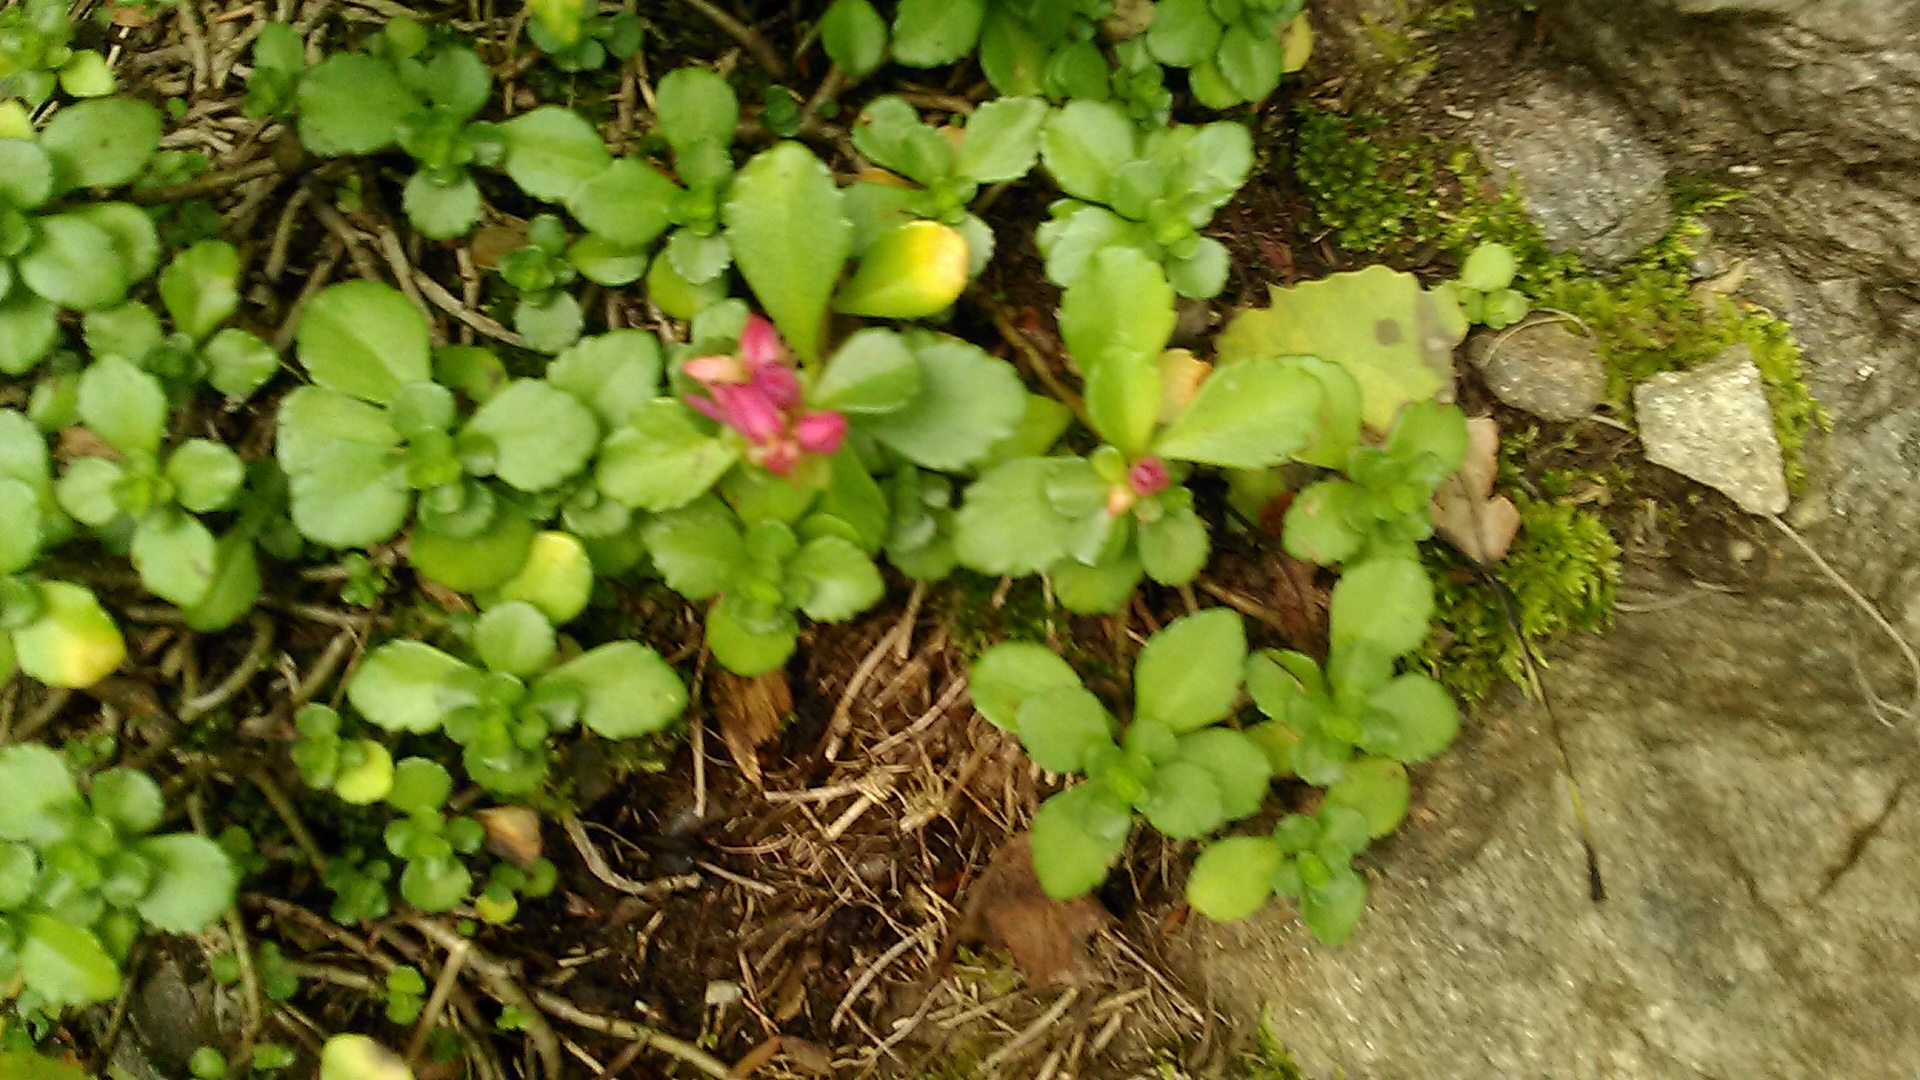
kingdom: Plantae
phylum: Tracheophyta
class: Magnoliopsida
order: Saxifragales
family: Crassulaceae
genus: Phedimus
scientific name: Phedimus spurius
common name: Caucasian stonecrop
